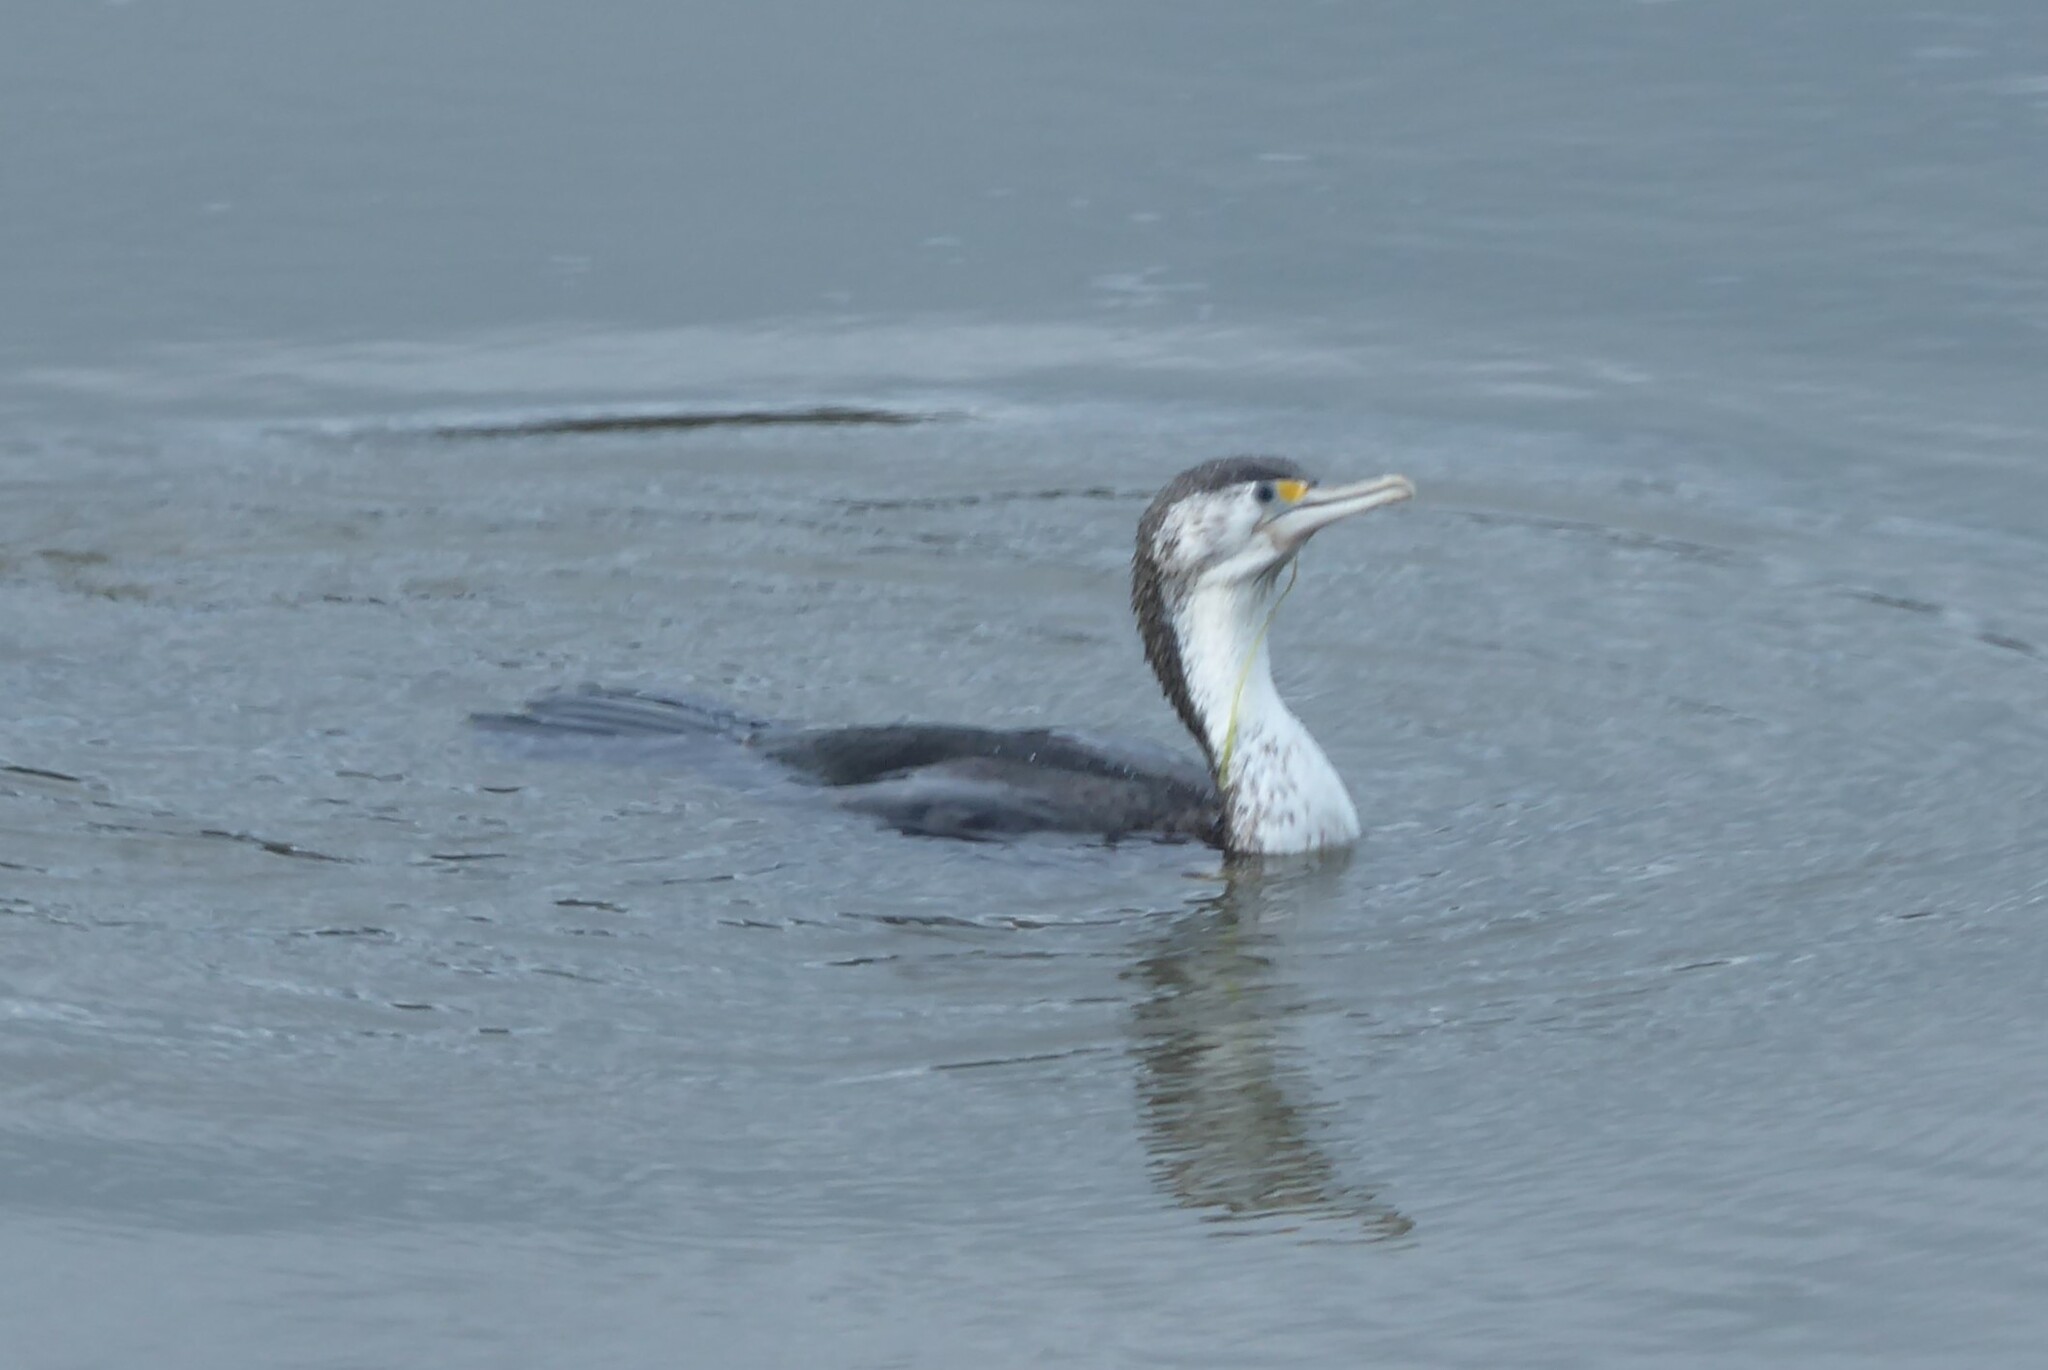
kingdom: Animalia
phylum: Chordata
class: Aves
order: Suliformes
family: Phalacrocoracidae
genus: Phalacrocorax
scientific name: Phalacrocorax varius
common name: Pied cormorant
